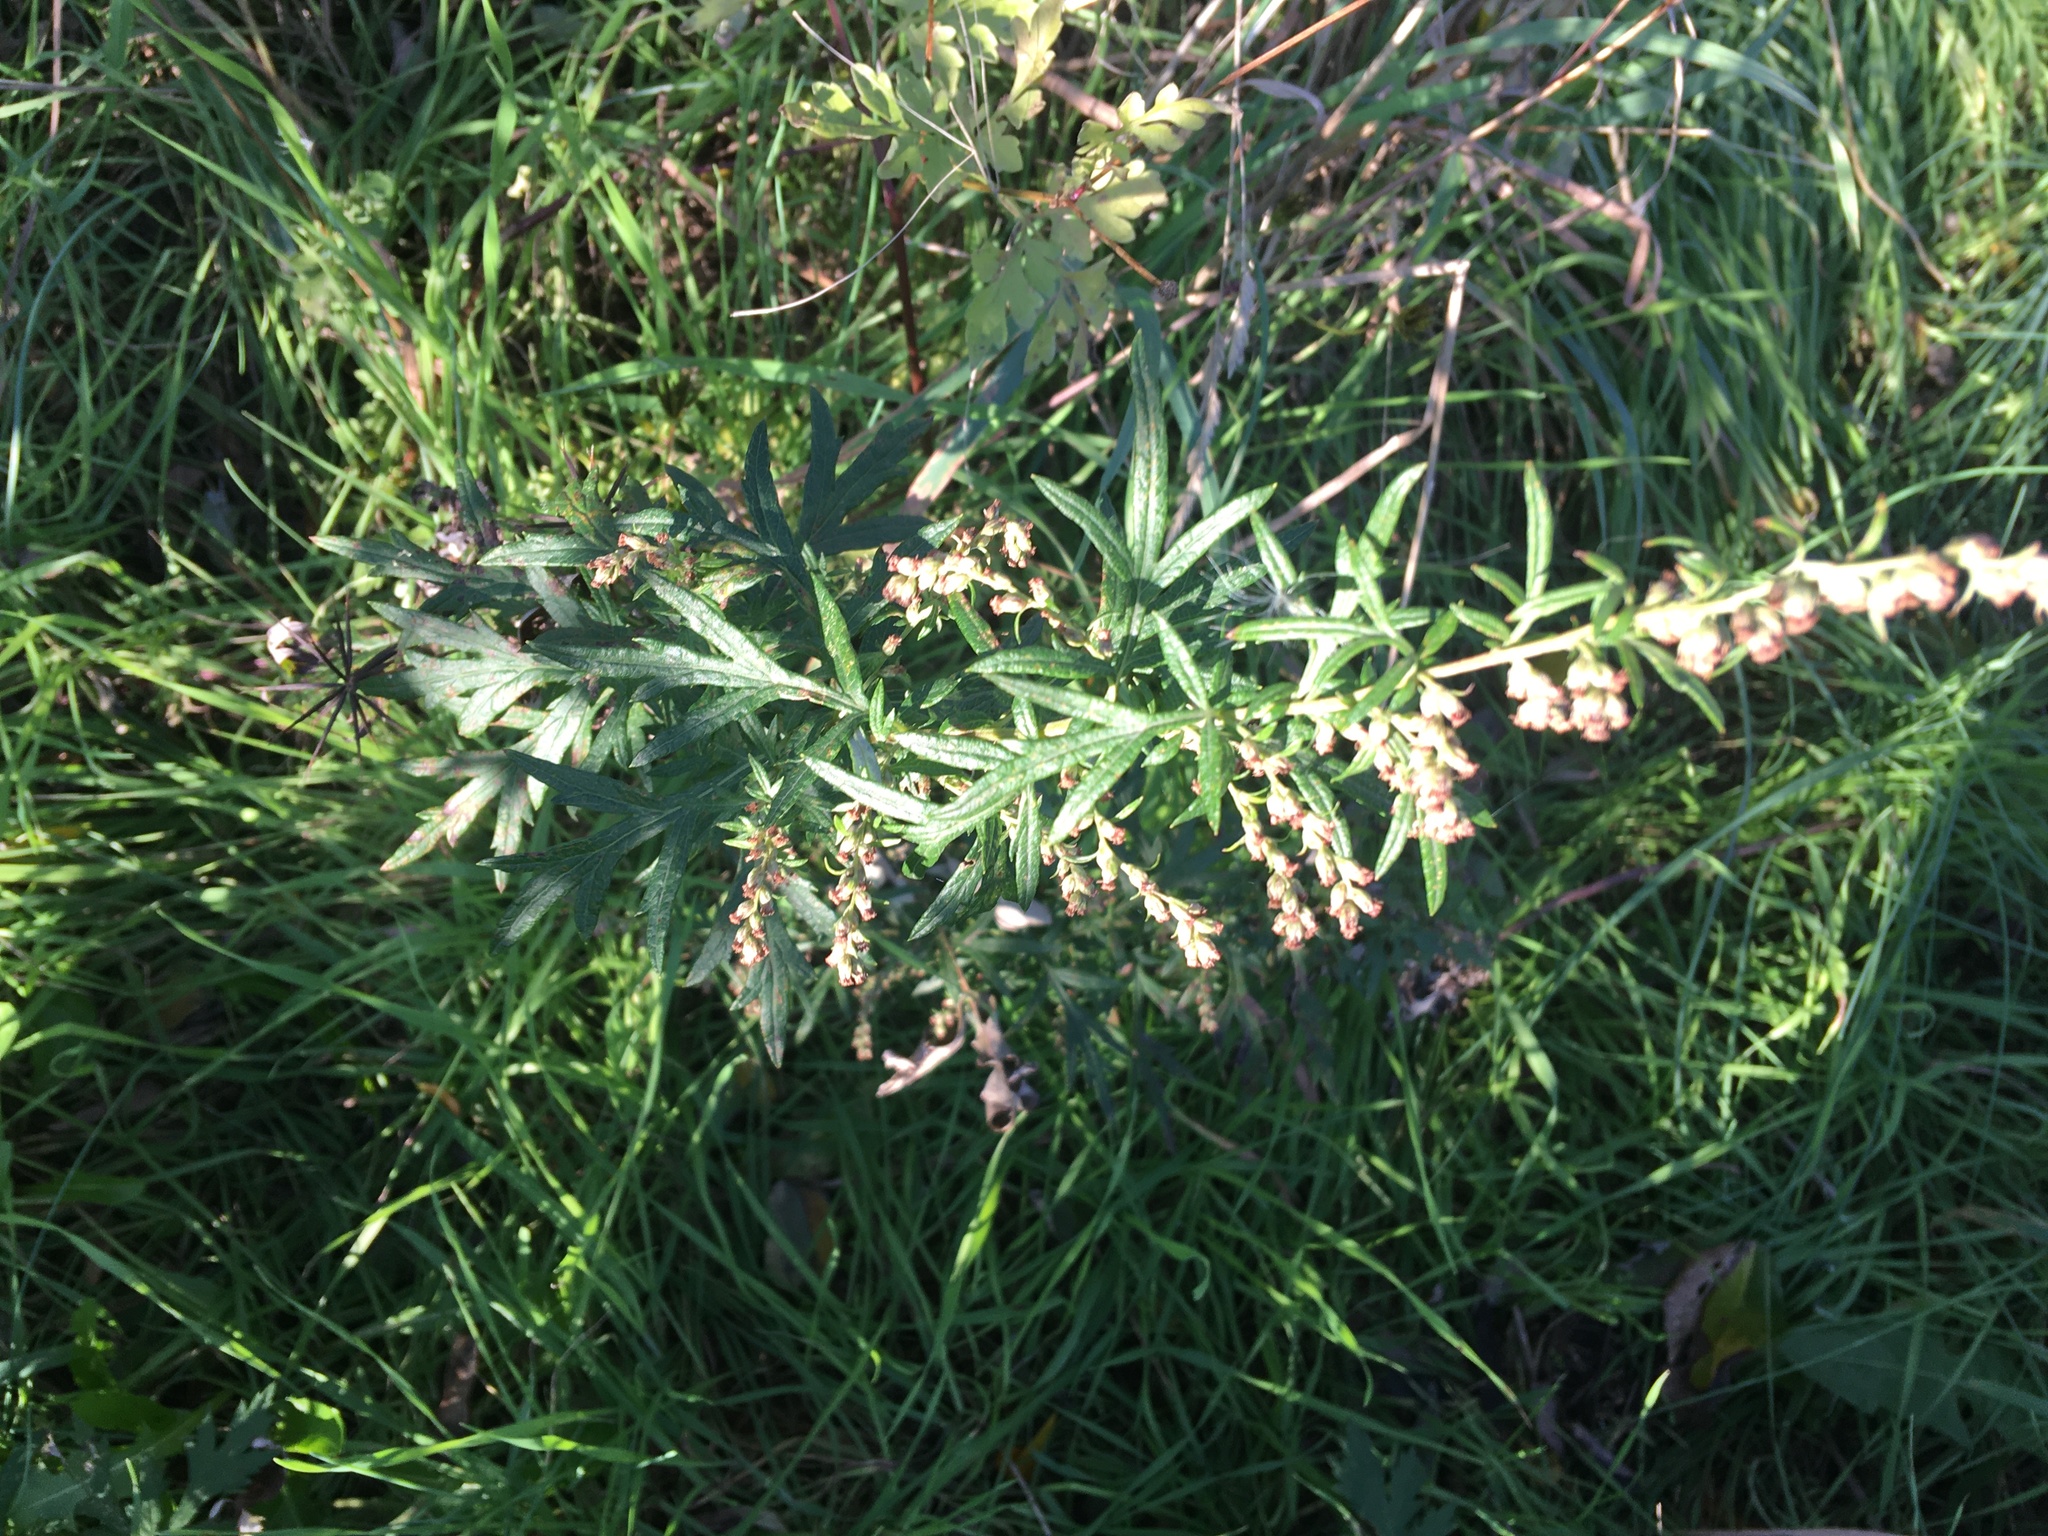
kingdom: Plantae
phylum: Tracheophyta
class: Magnoliopsida
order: Asterales
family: Asteraceae
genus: Artemisia
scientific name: Artemisia vulgaris
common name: Mugwort
